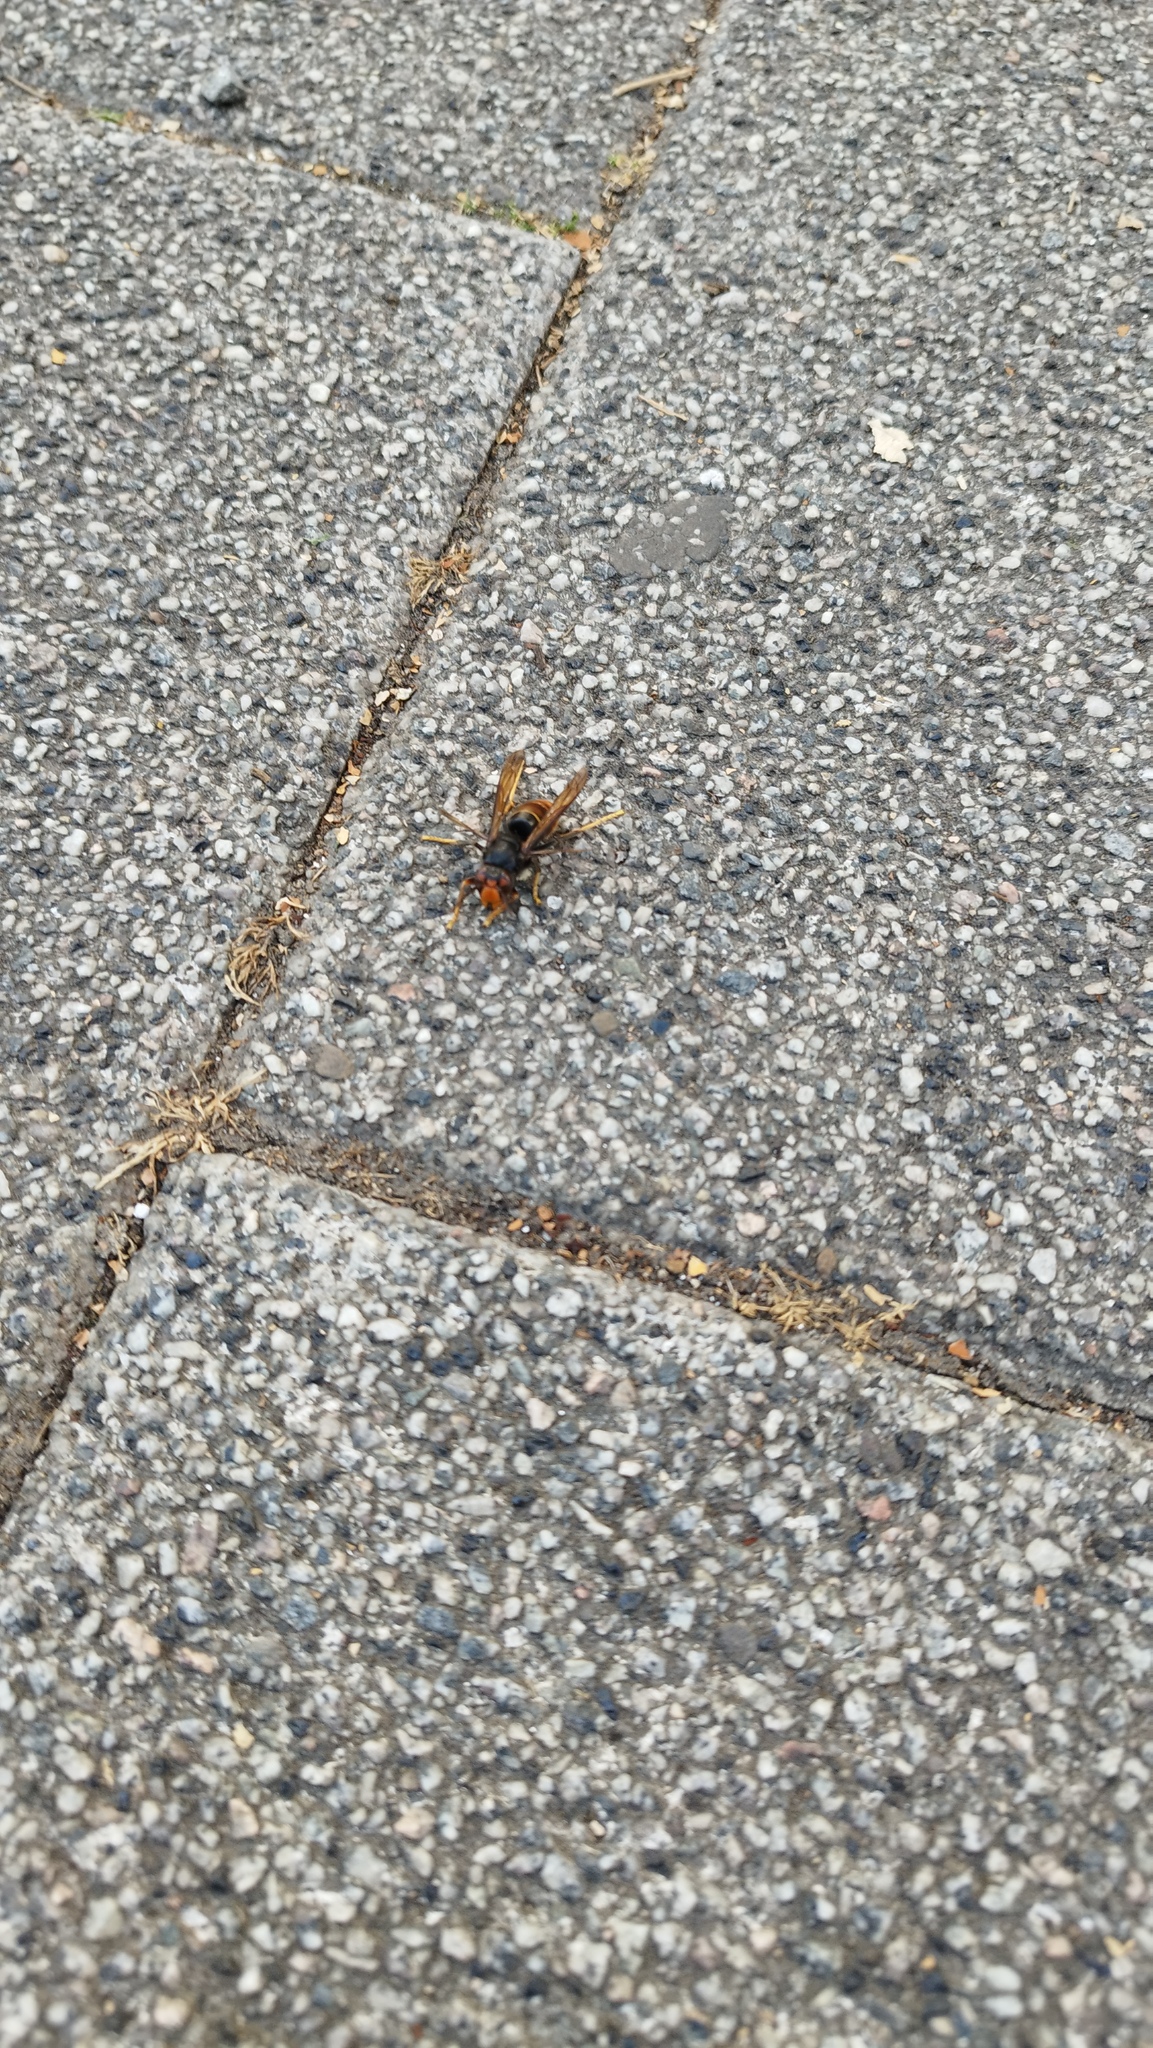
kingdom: Animalia
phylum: Arthropoda
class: Insecta
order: Hymenoptera
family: Vespidae
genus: Vespa
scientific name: Vespa velutina
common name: Asian hornet
